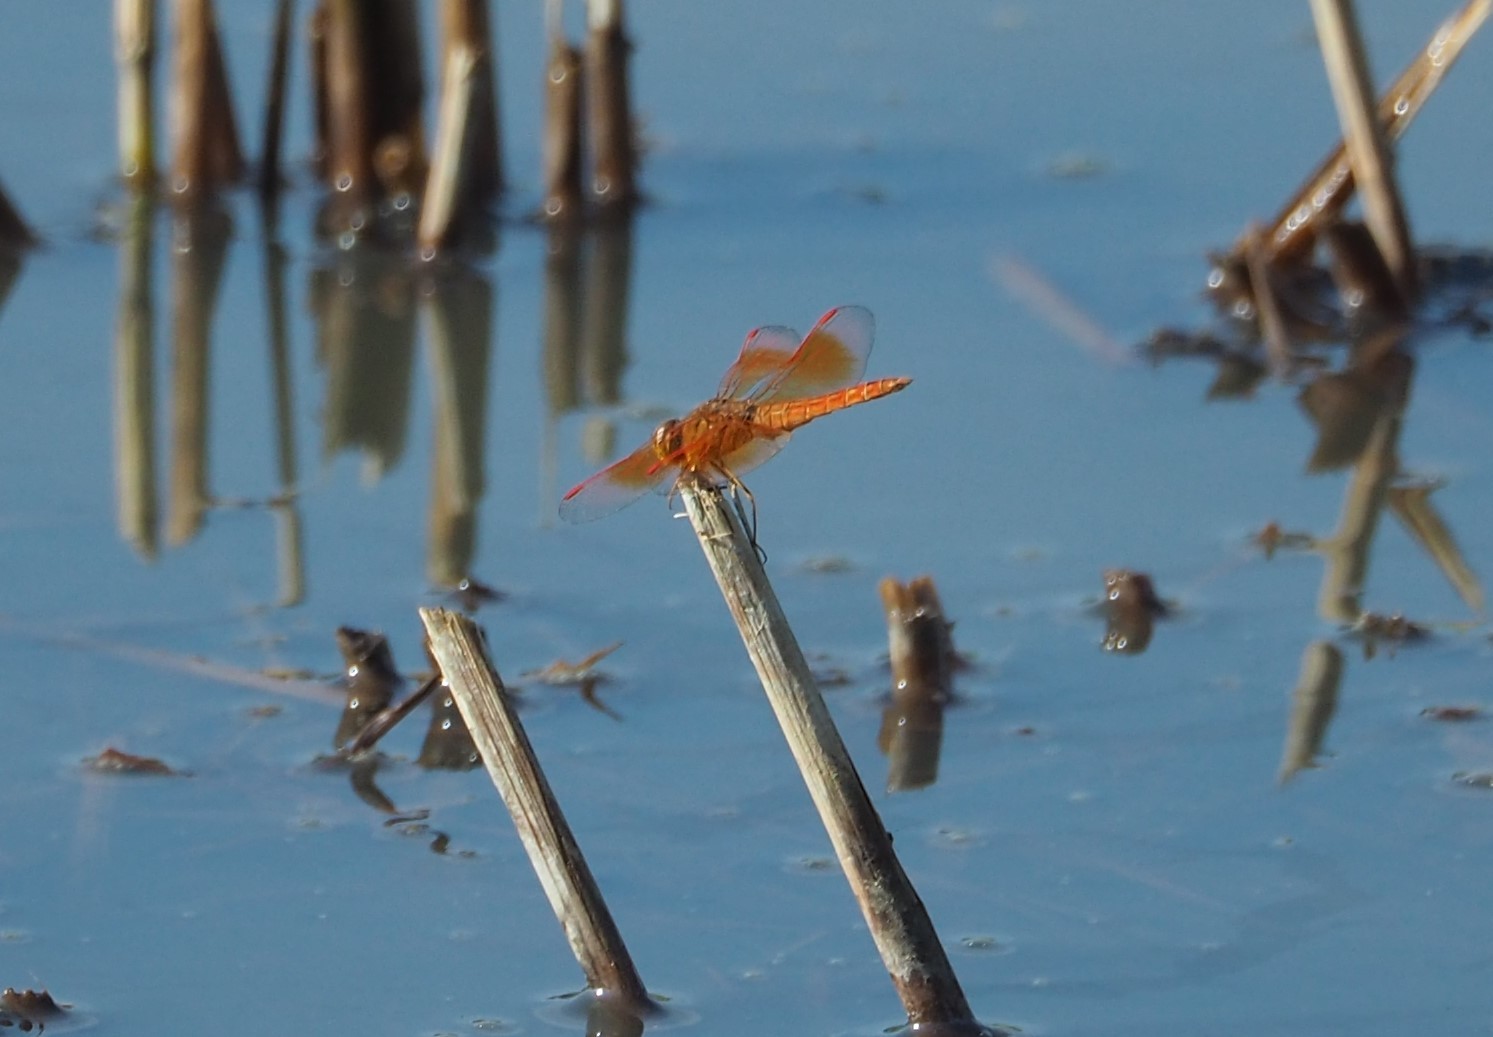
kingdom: Animalia
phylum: Arthropoda
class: Insecta
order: Odonata
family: Libellulidae
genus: Brachythemis
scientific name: Brachythemis contaminata
